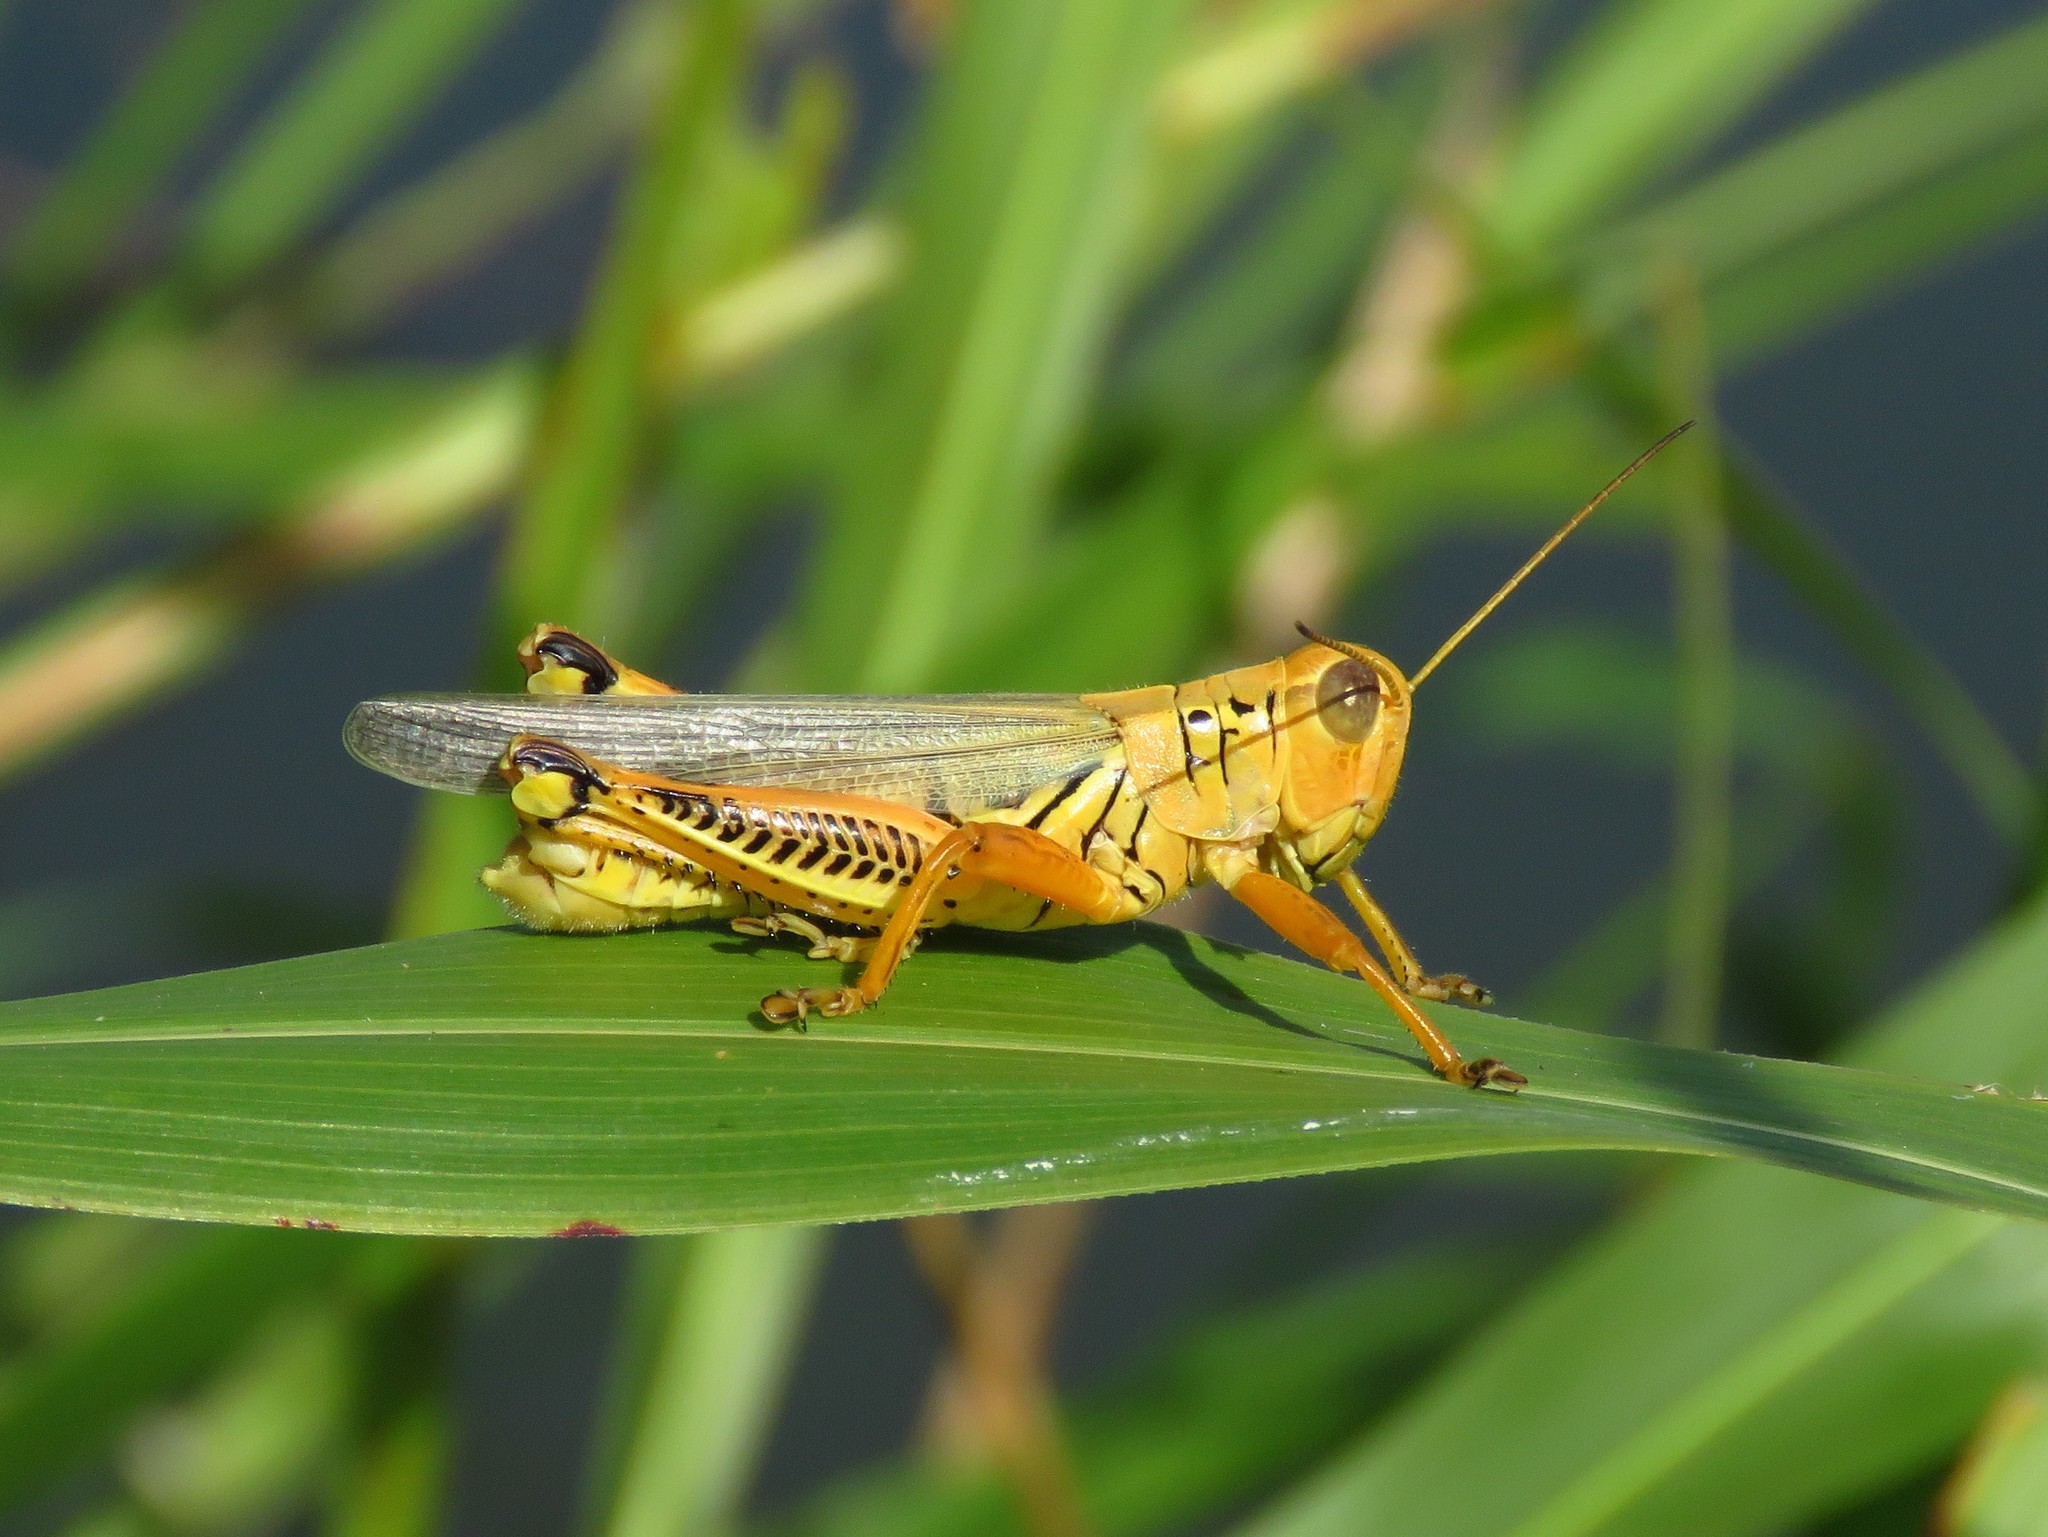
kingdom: Animalia
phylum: Arthropoda
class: Insecta
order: Orthoptera
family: Acrididae
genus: Melanoplus
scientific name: Melanoplus differentialis
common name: Differential grasshopper
